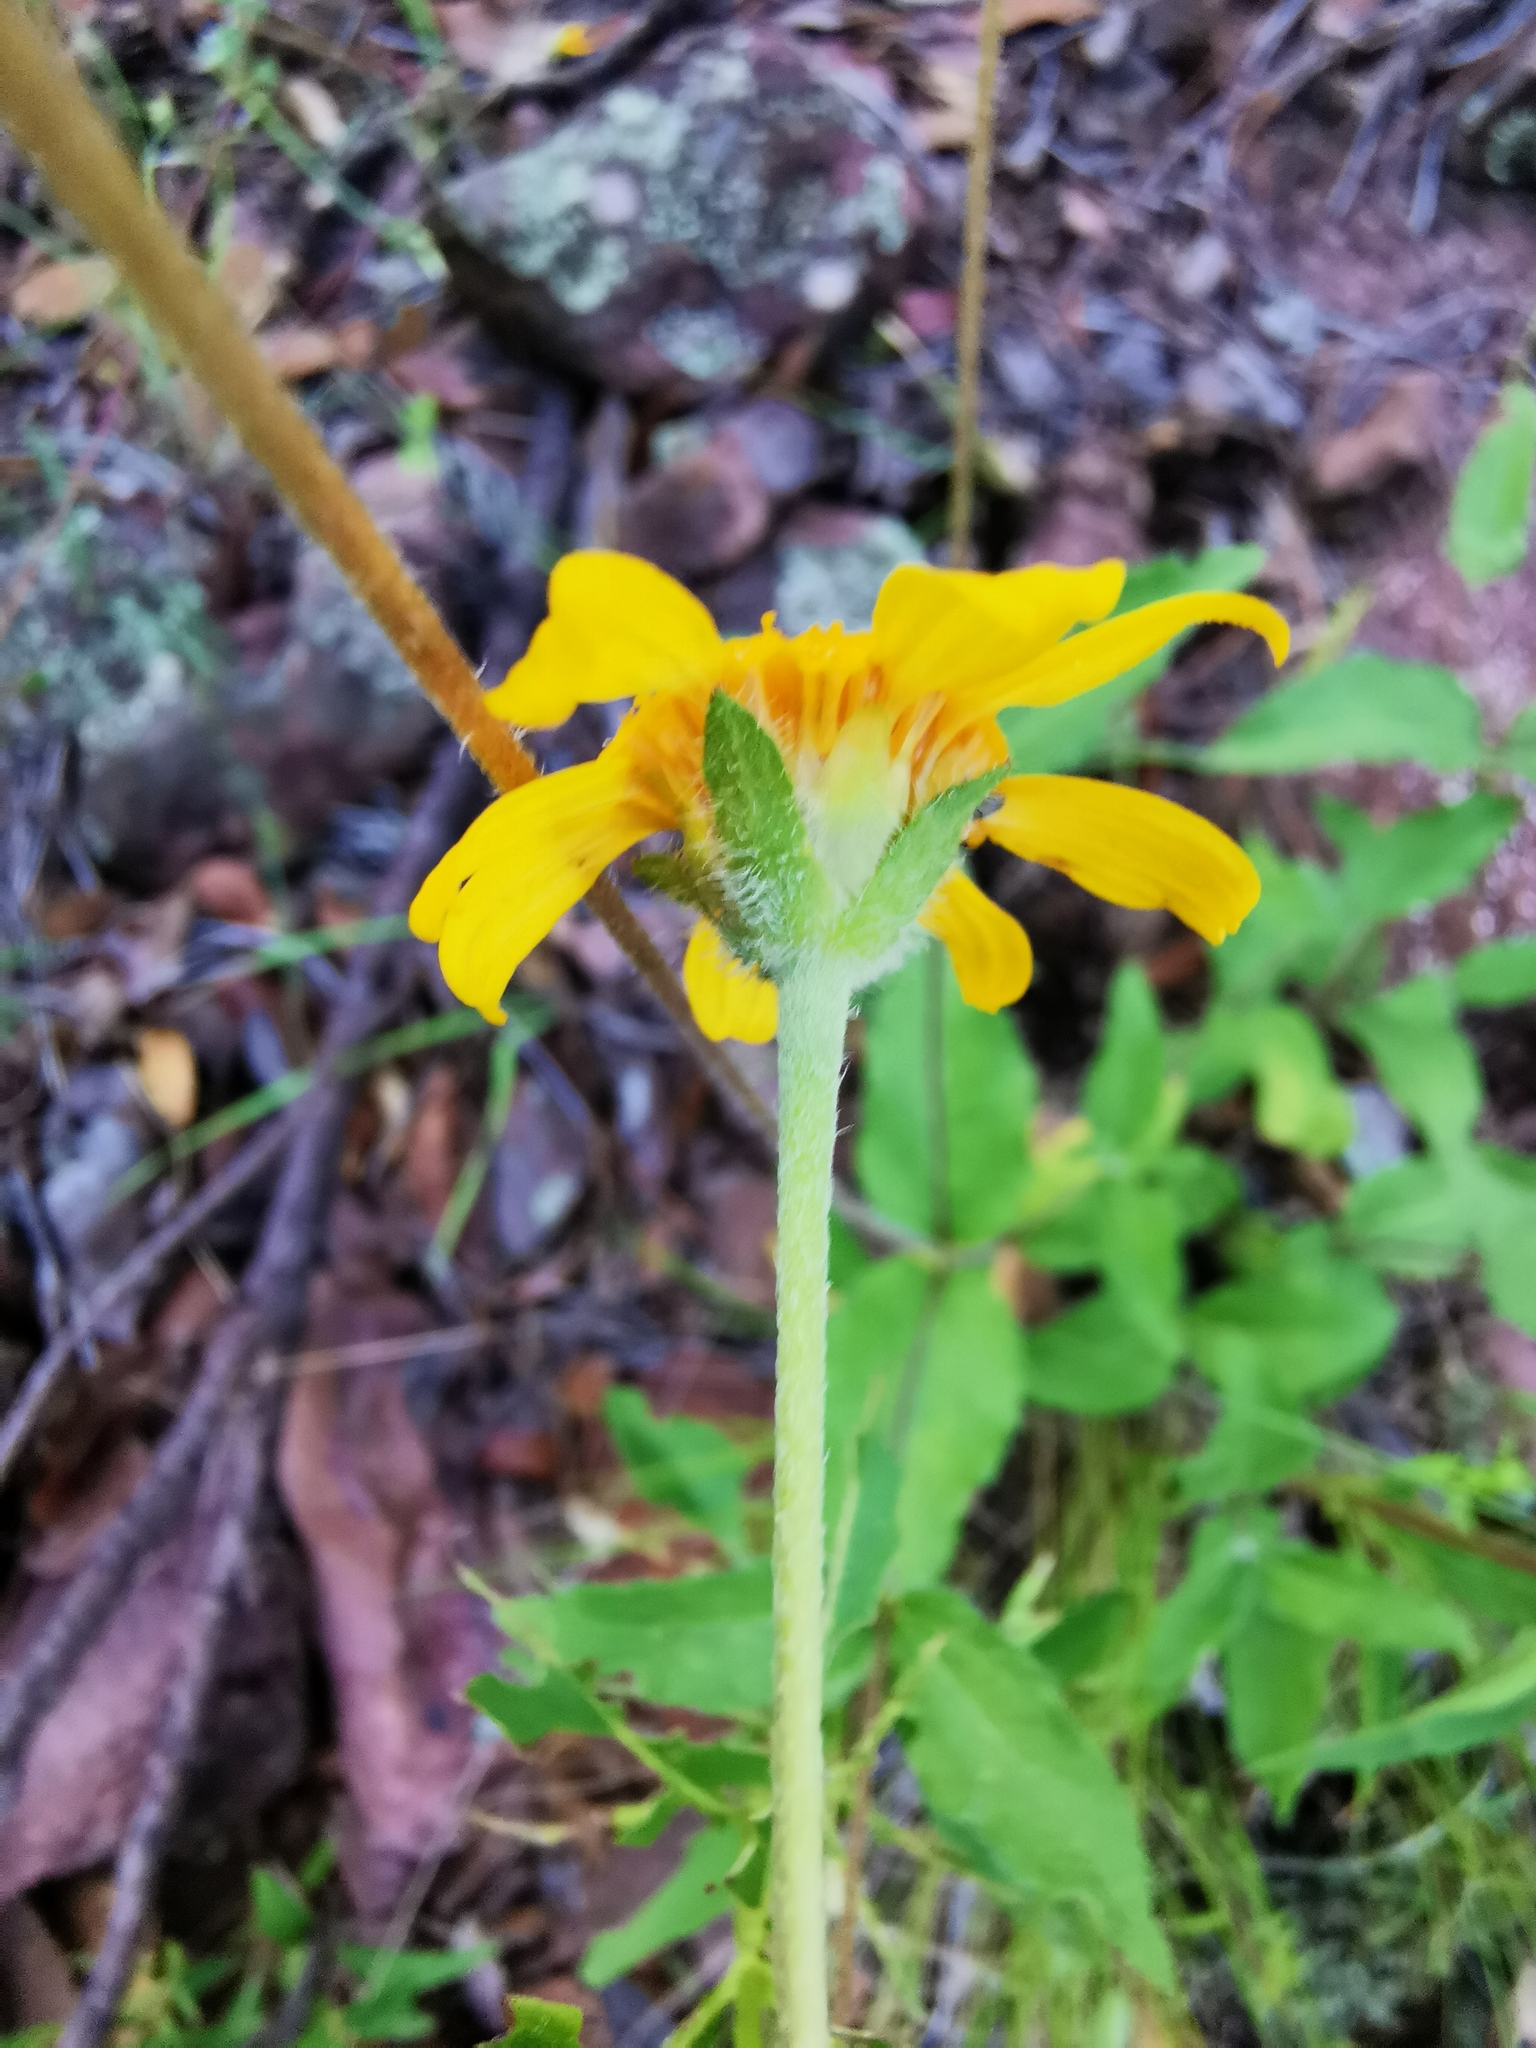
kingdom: Plantae
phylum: Tracheophyta
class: Magnoliopsida
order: Asterales
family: Asteraceae
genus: Lasianthaea
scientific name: Lasianthaea podocephala
